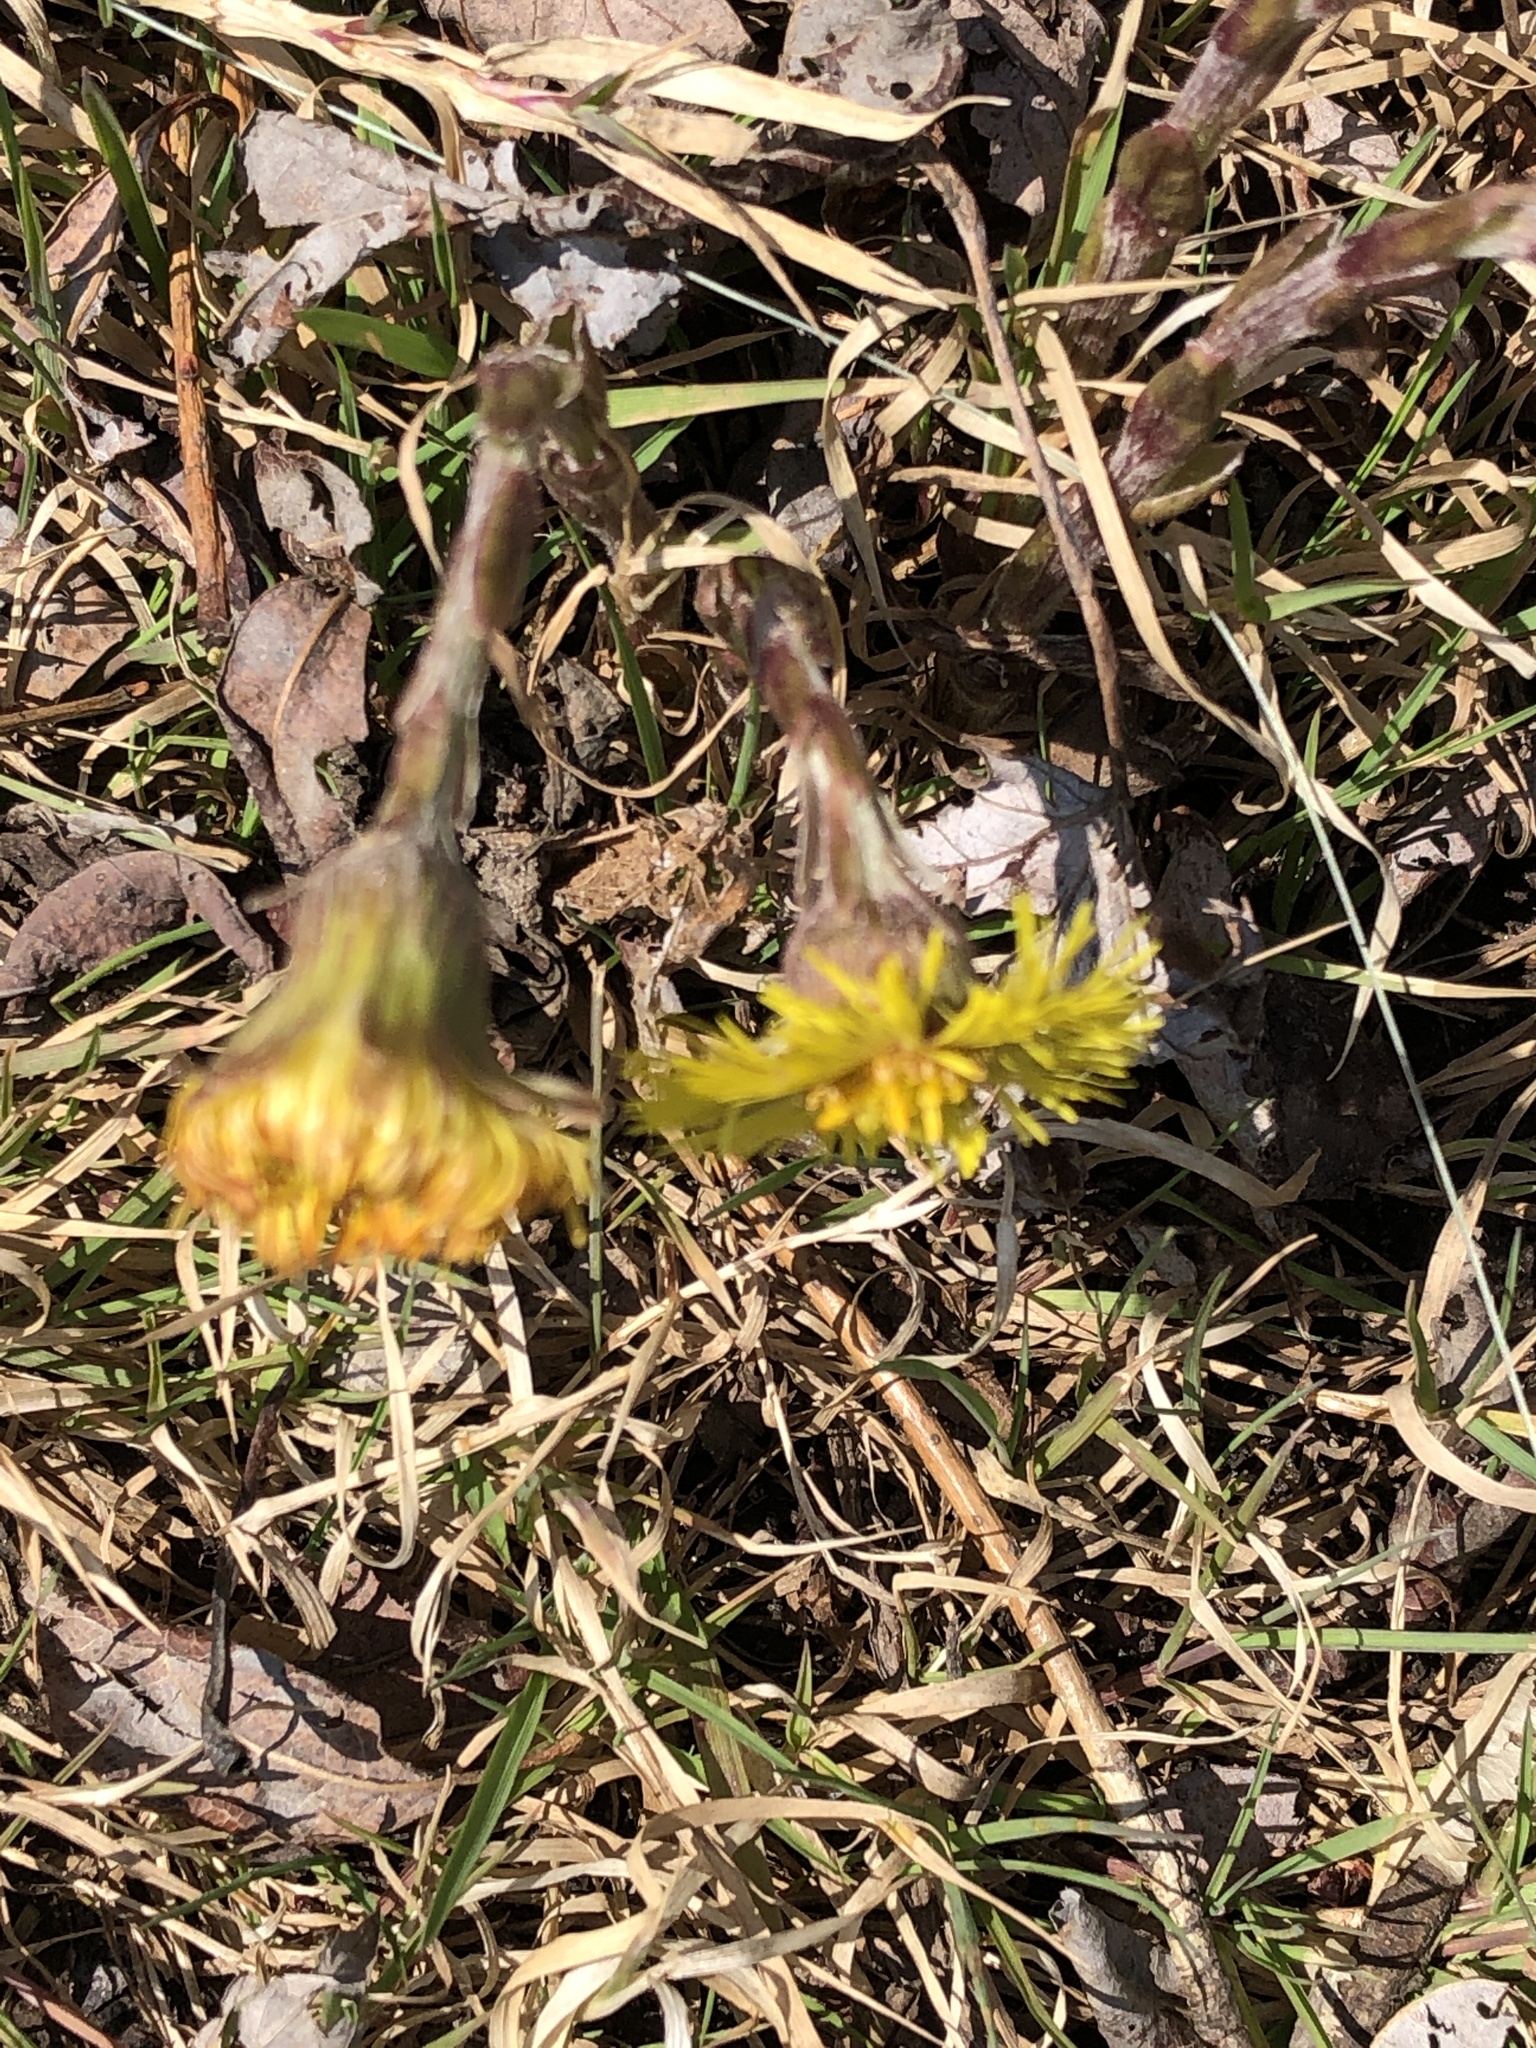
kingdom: Plantae
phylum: Tracheophyta
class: Magnoliopsida
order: Asterales
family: Asteraceae
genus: Tussilago
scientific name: Tussilago farfara
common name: Coltsfoot
